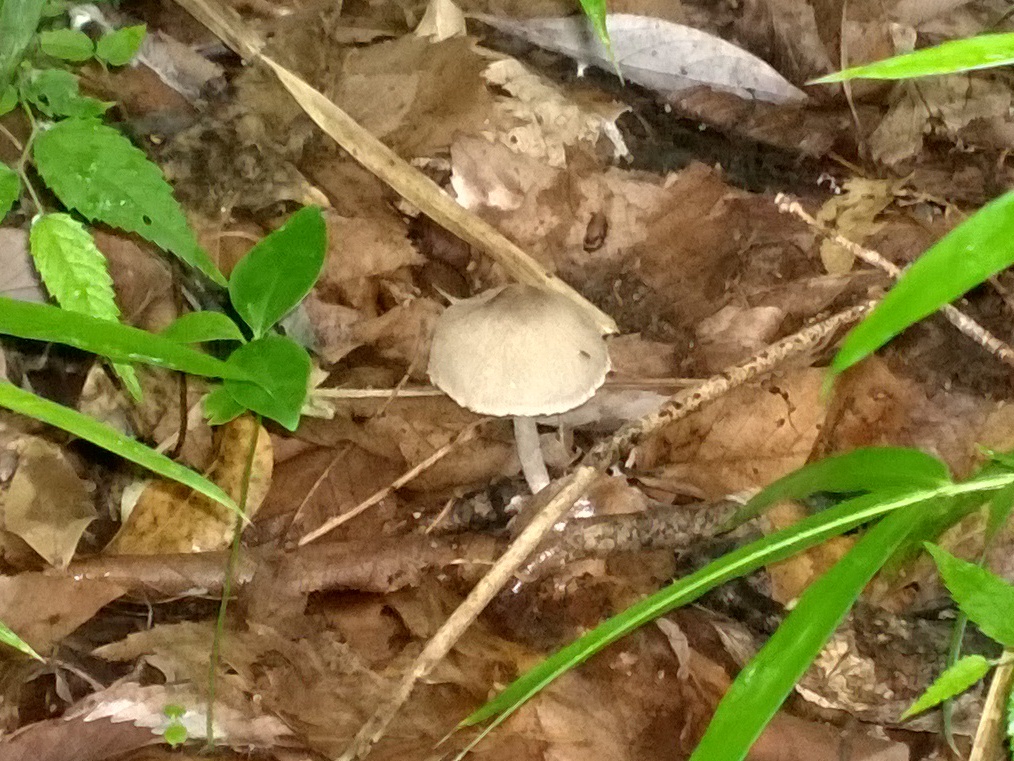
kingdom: Fungi
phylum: Basidiomycota
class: Agaricomycetes
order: Agaricales
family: Psathyrellaceae
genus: Coprinopsis
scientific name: Coprinopsis cineraria
